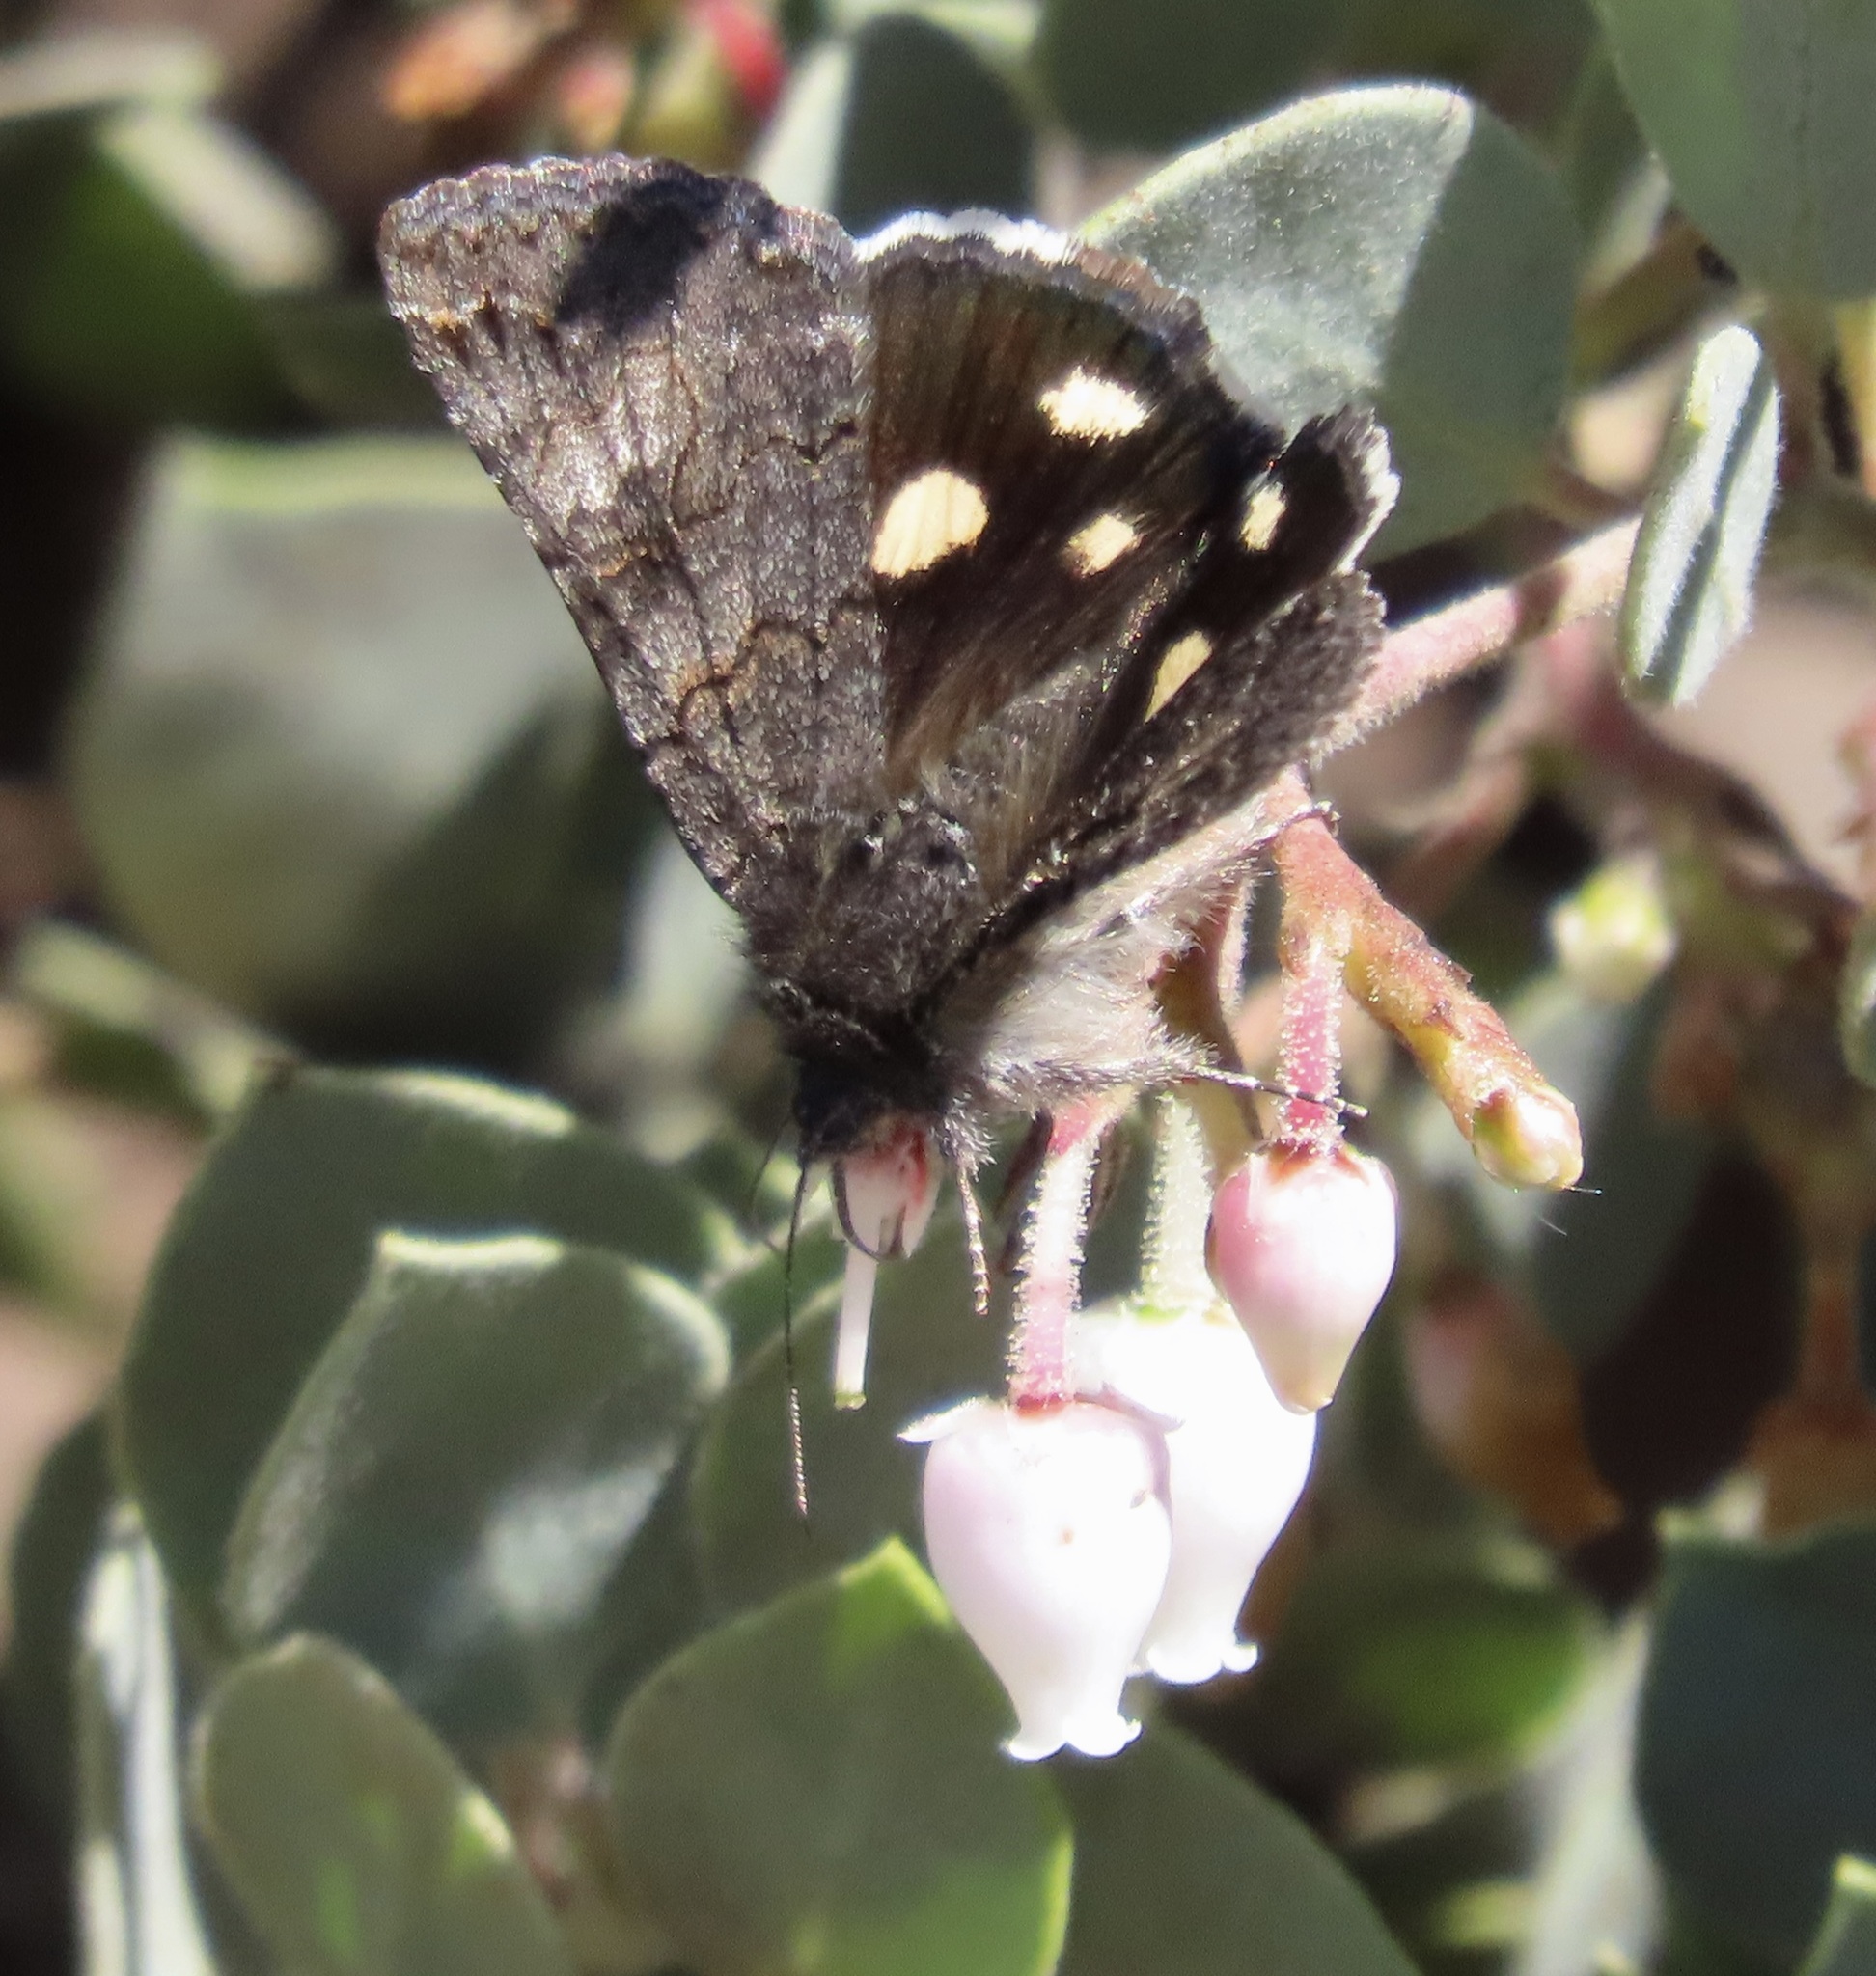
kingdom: Animalia
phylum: Arthropoda
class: Insecta
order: Lepidoptera
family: Erebidae
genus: Litocala
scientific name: Litocala sexsignata
